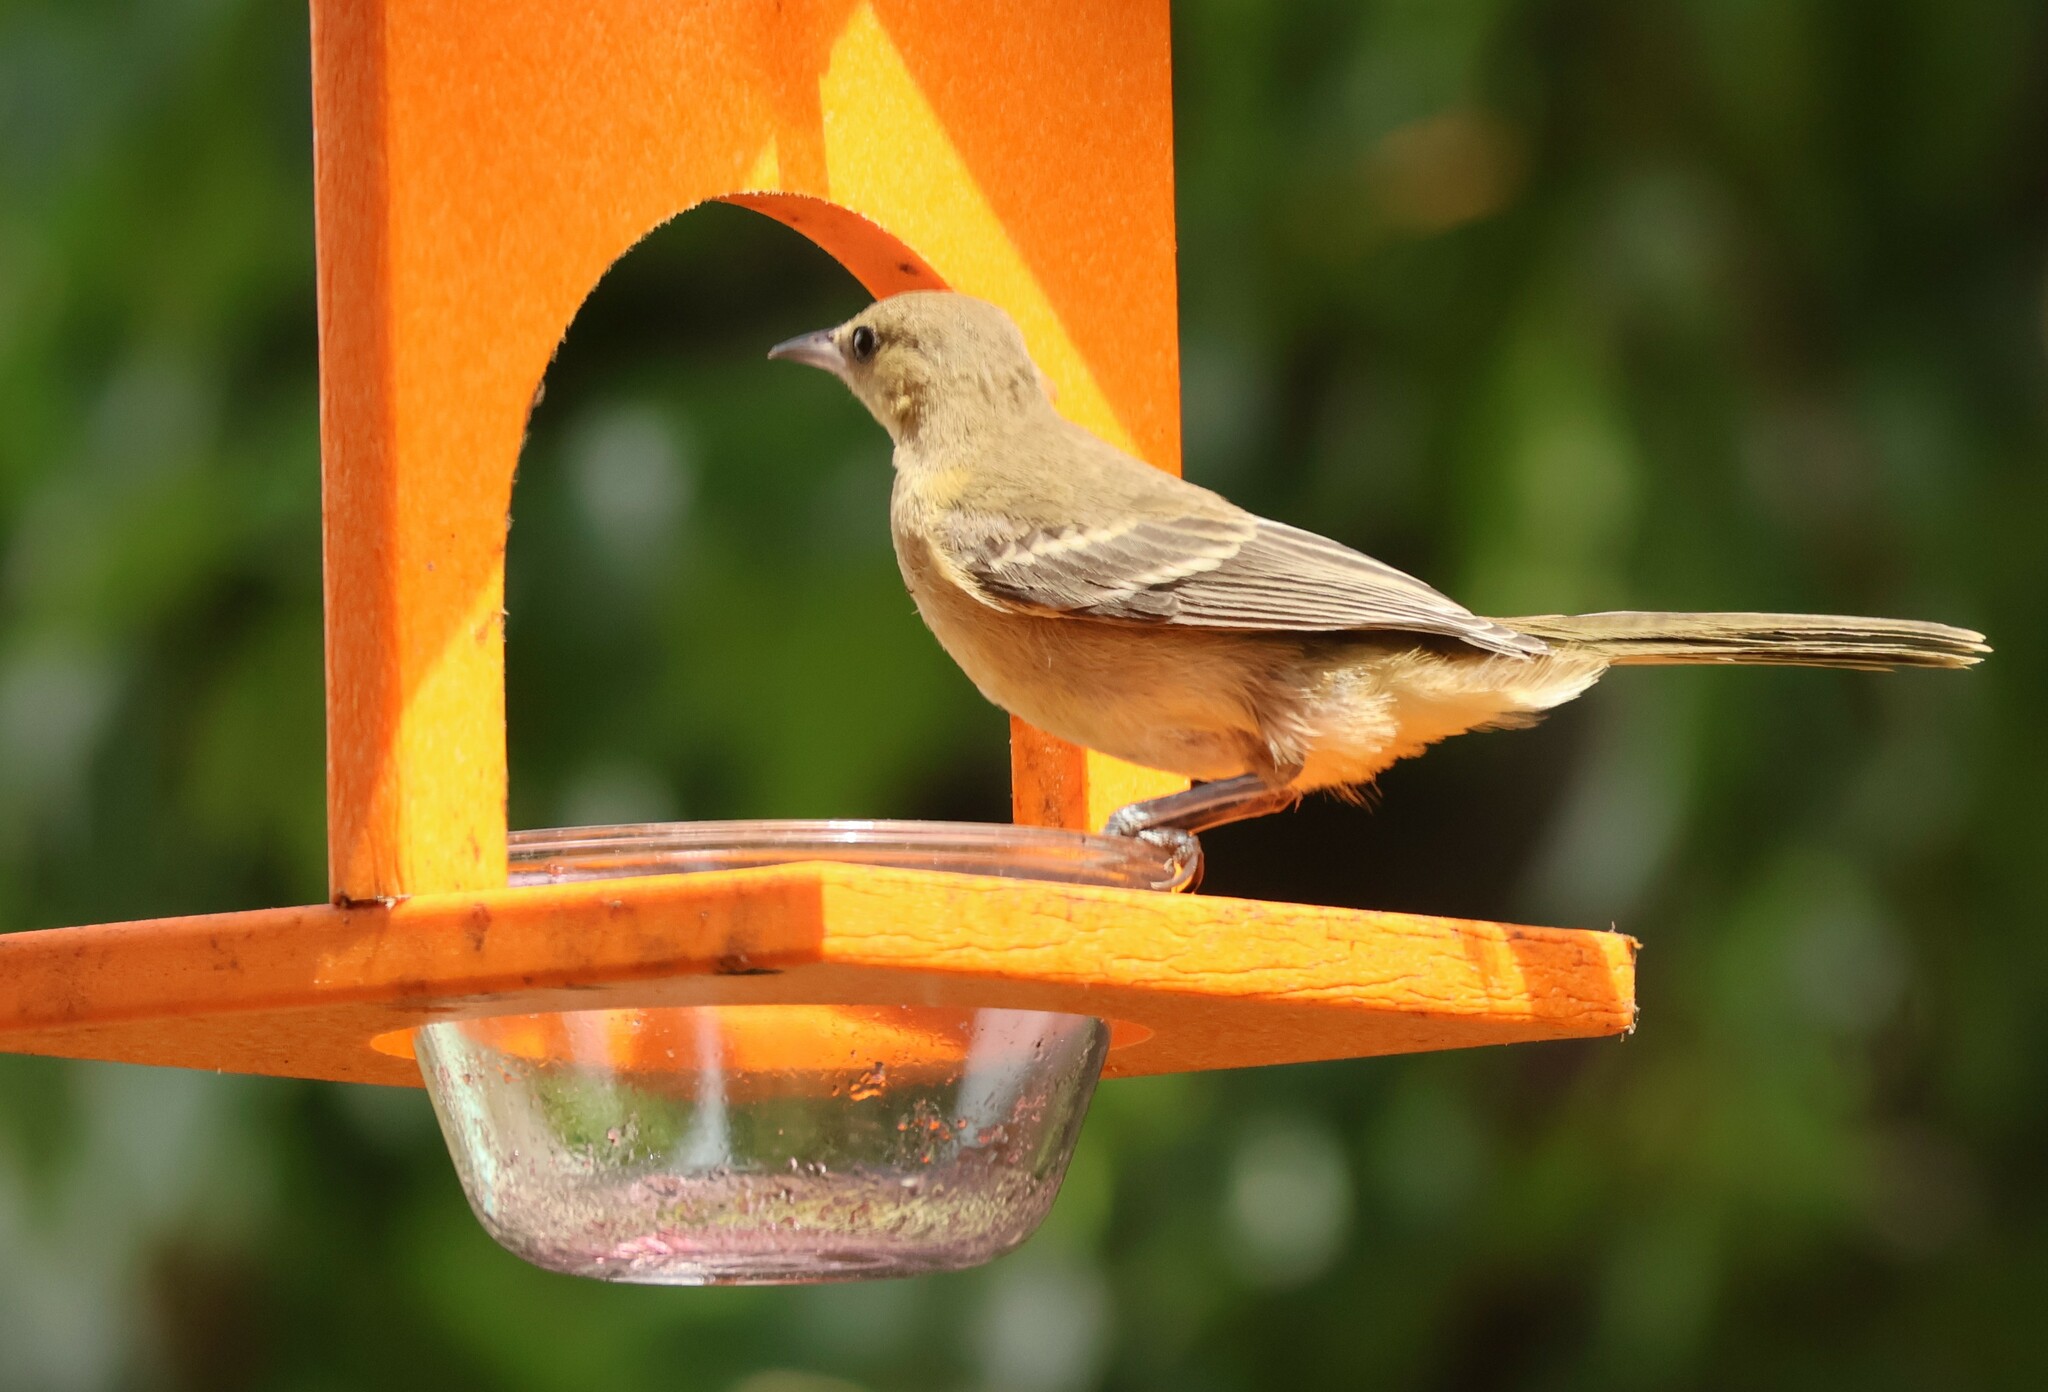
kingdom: Animalia
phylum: Chordata
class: Aves
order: Passeriformes
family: Icteridae
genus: Icterus
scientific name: Icterus cucullatus
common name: Hooded oriole
